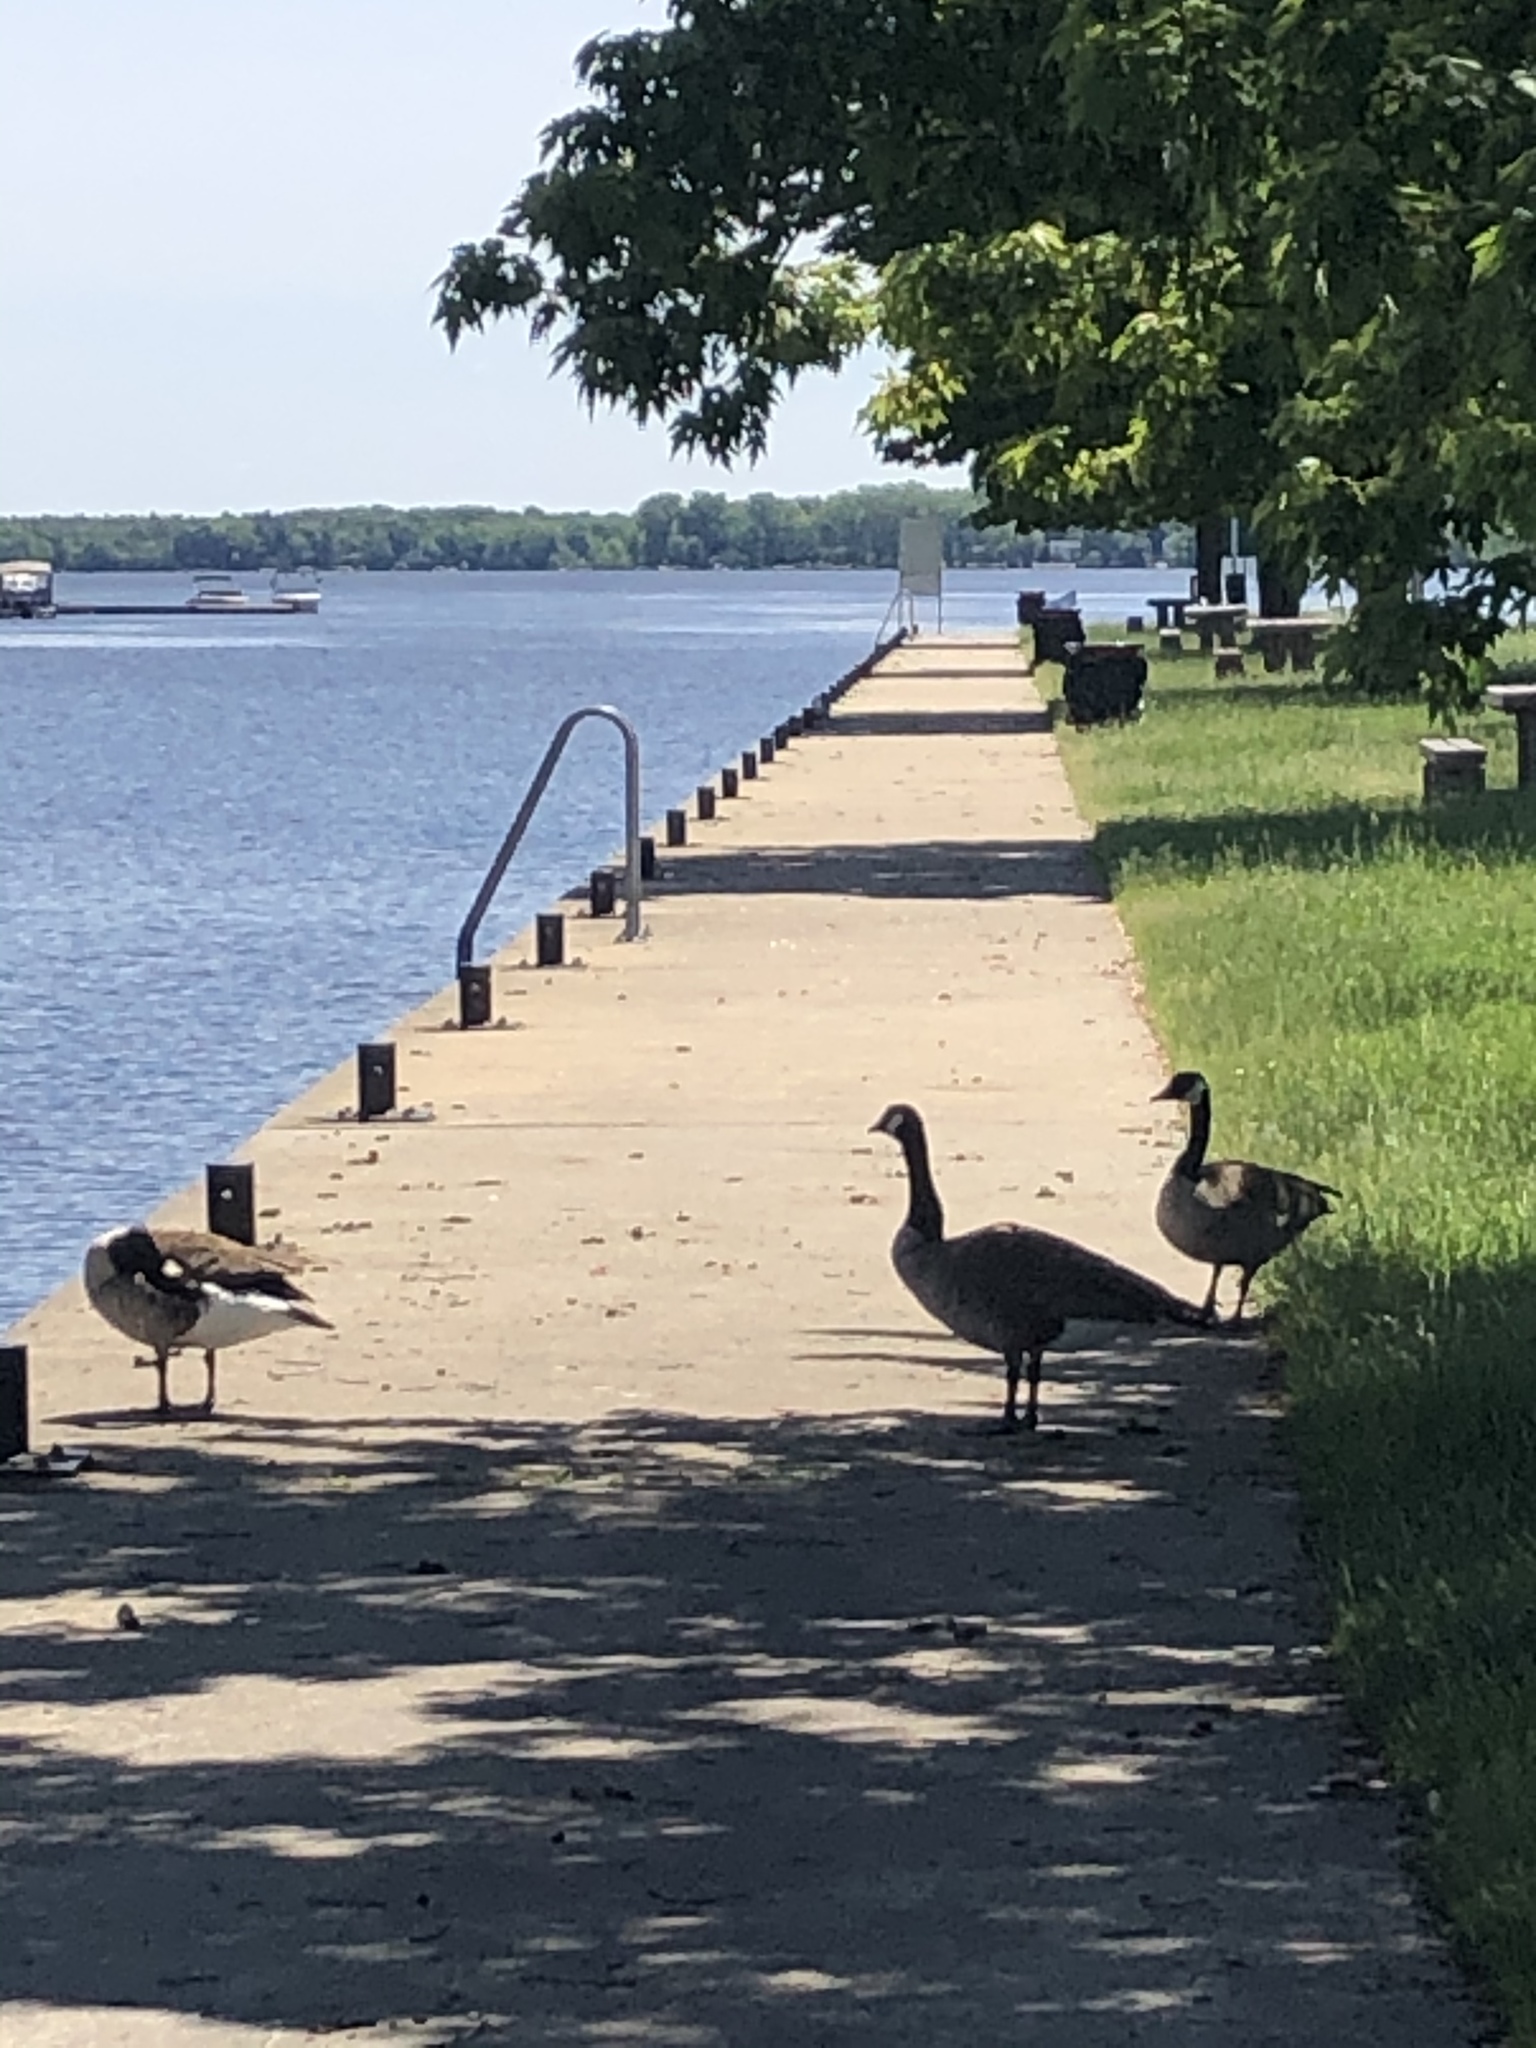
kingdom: Animalia
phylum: Chordata
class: Aves
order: Anseriformes
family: Anatidae
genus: Branta
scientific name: Branta canadensis
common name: Canada goose
